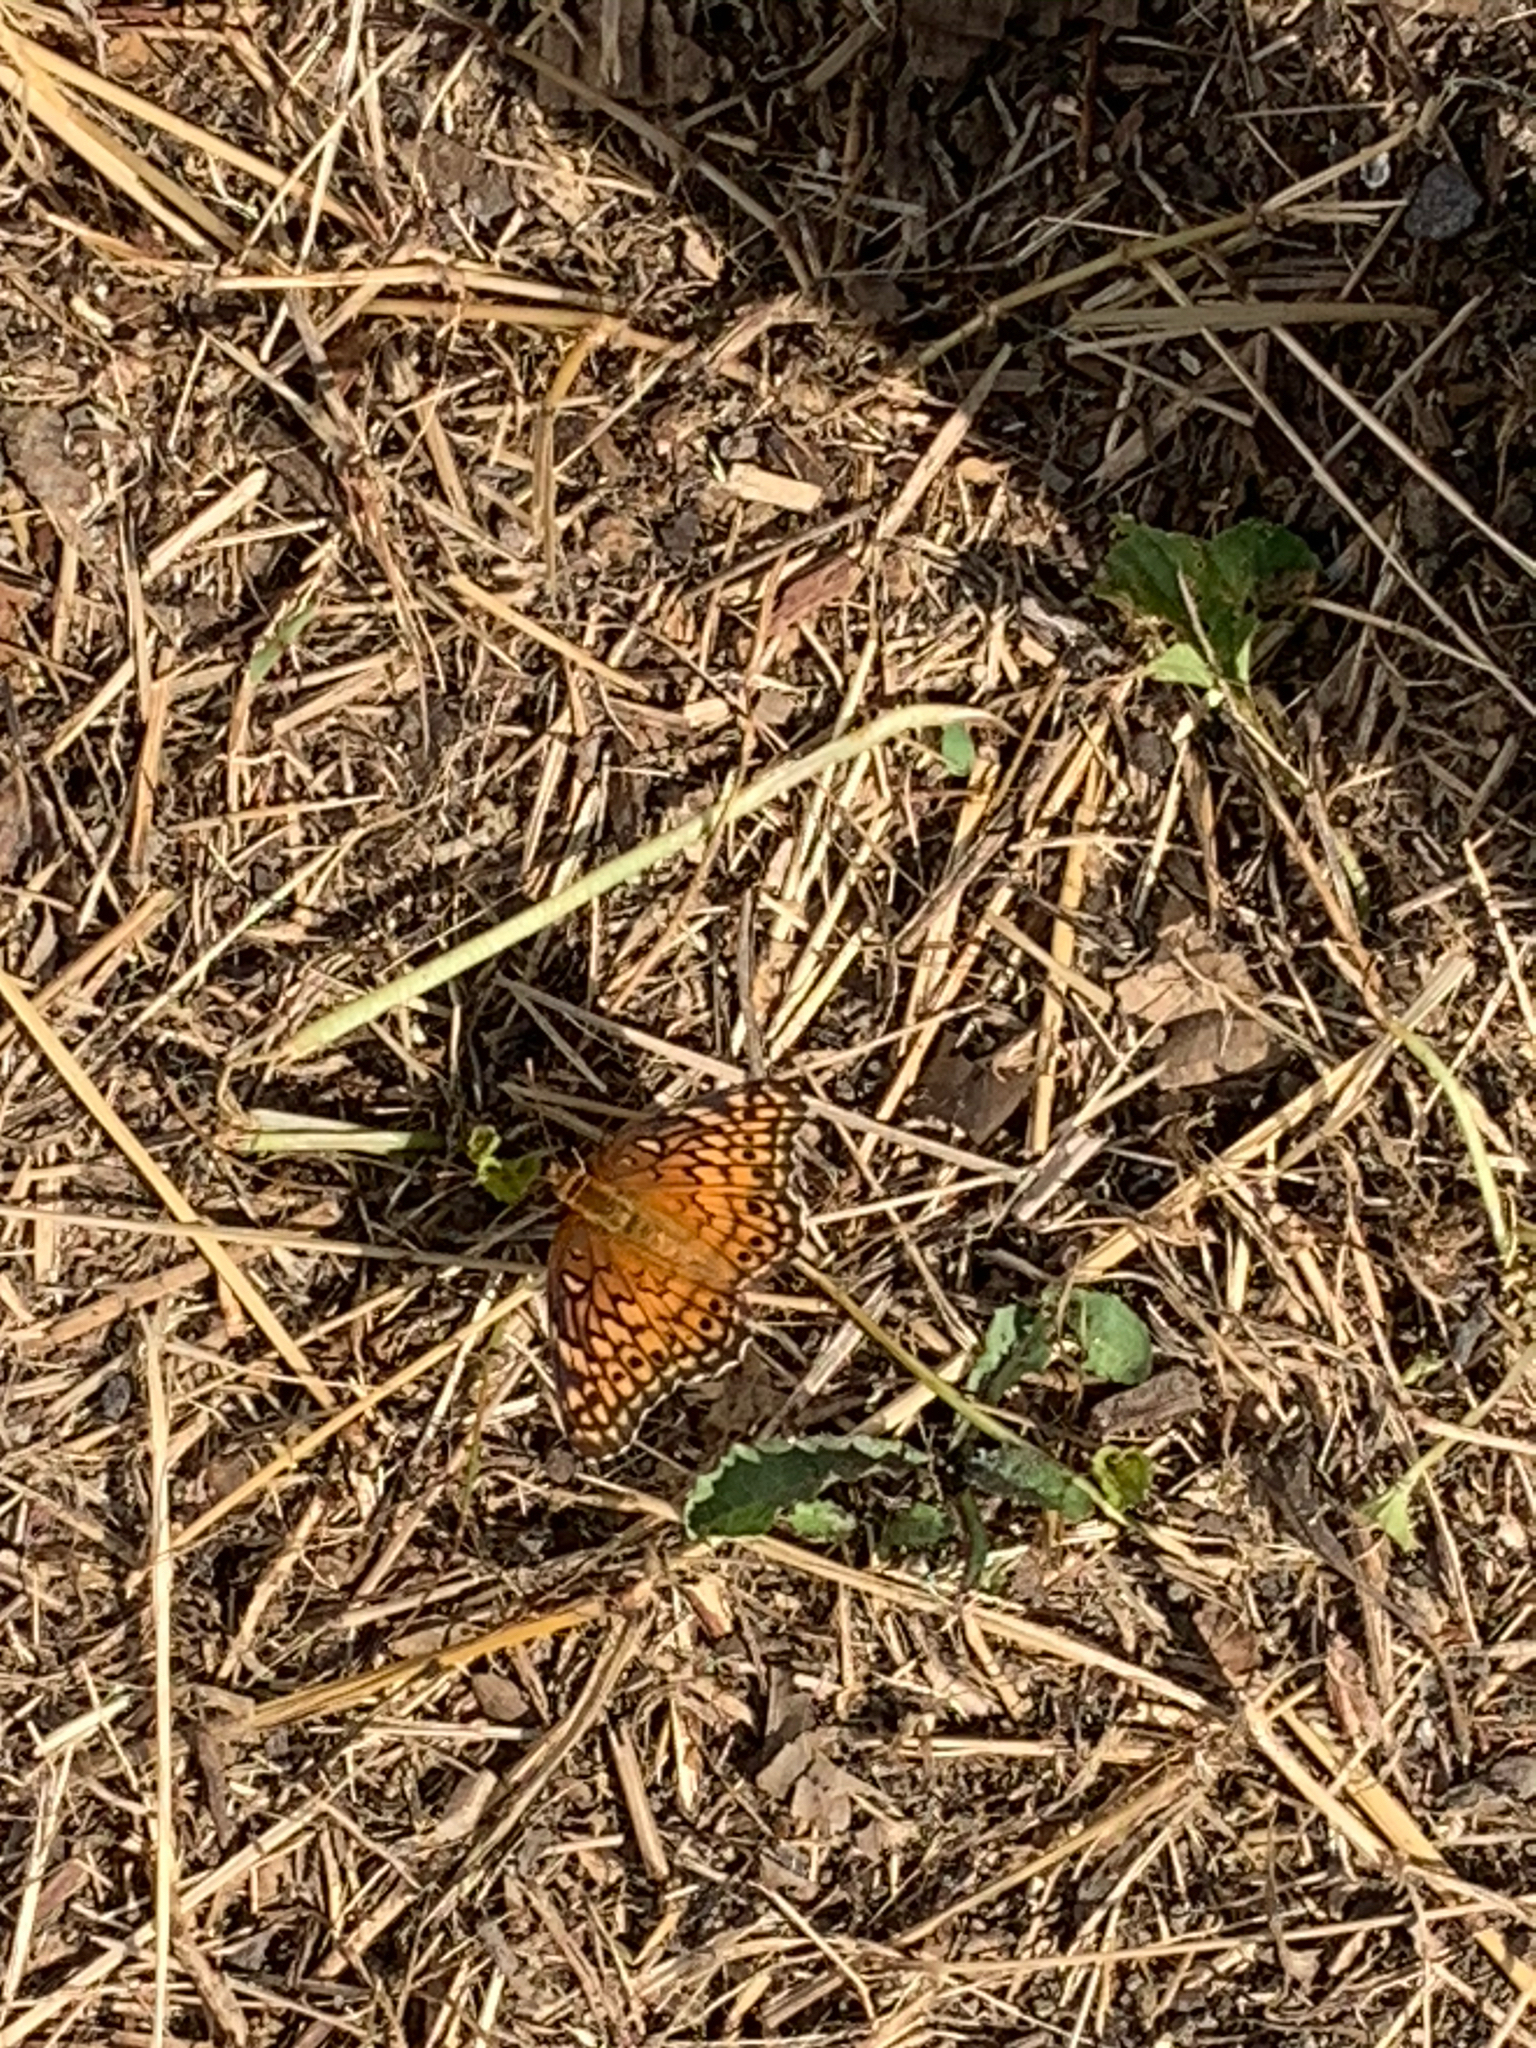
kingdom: Animalia
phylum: Arthropoda
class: Insecta
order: Lepidoptera
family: Nymphalidae
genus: Euptoieta
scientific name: Euptoieta claudia
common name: Variegated fritillary
